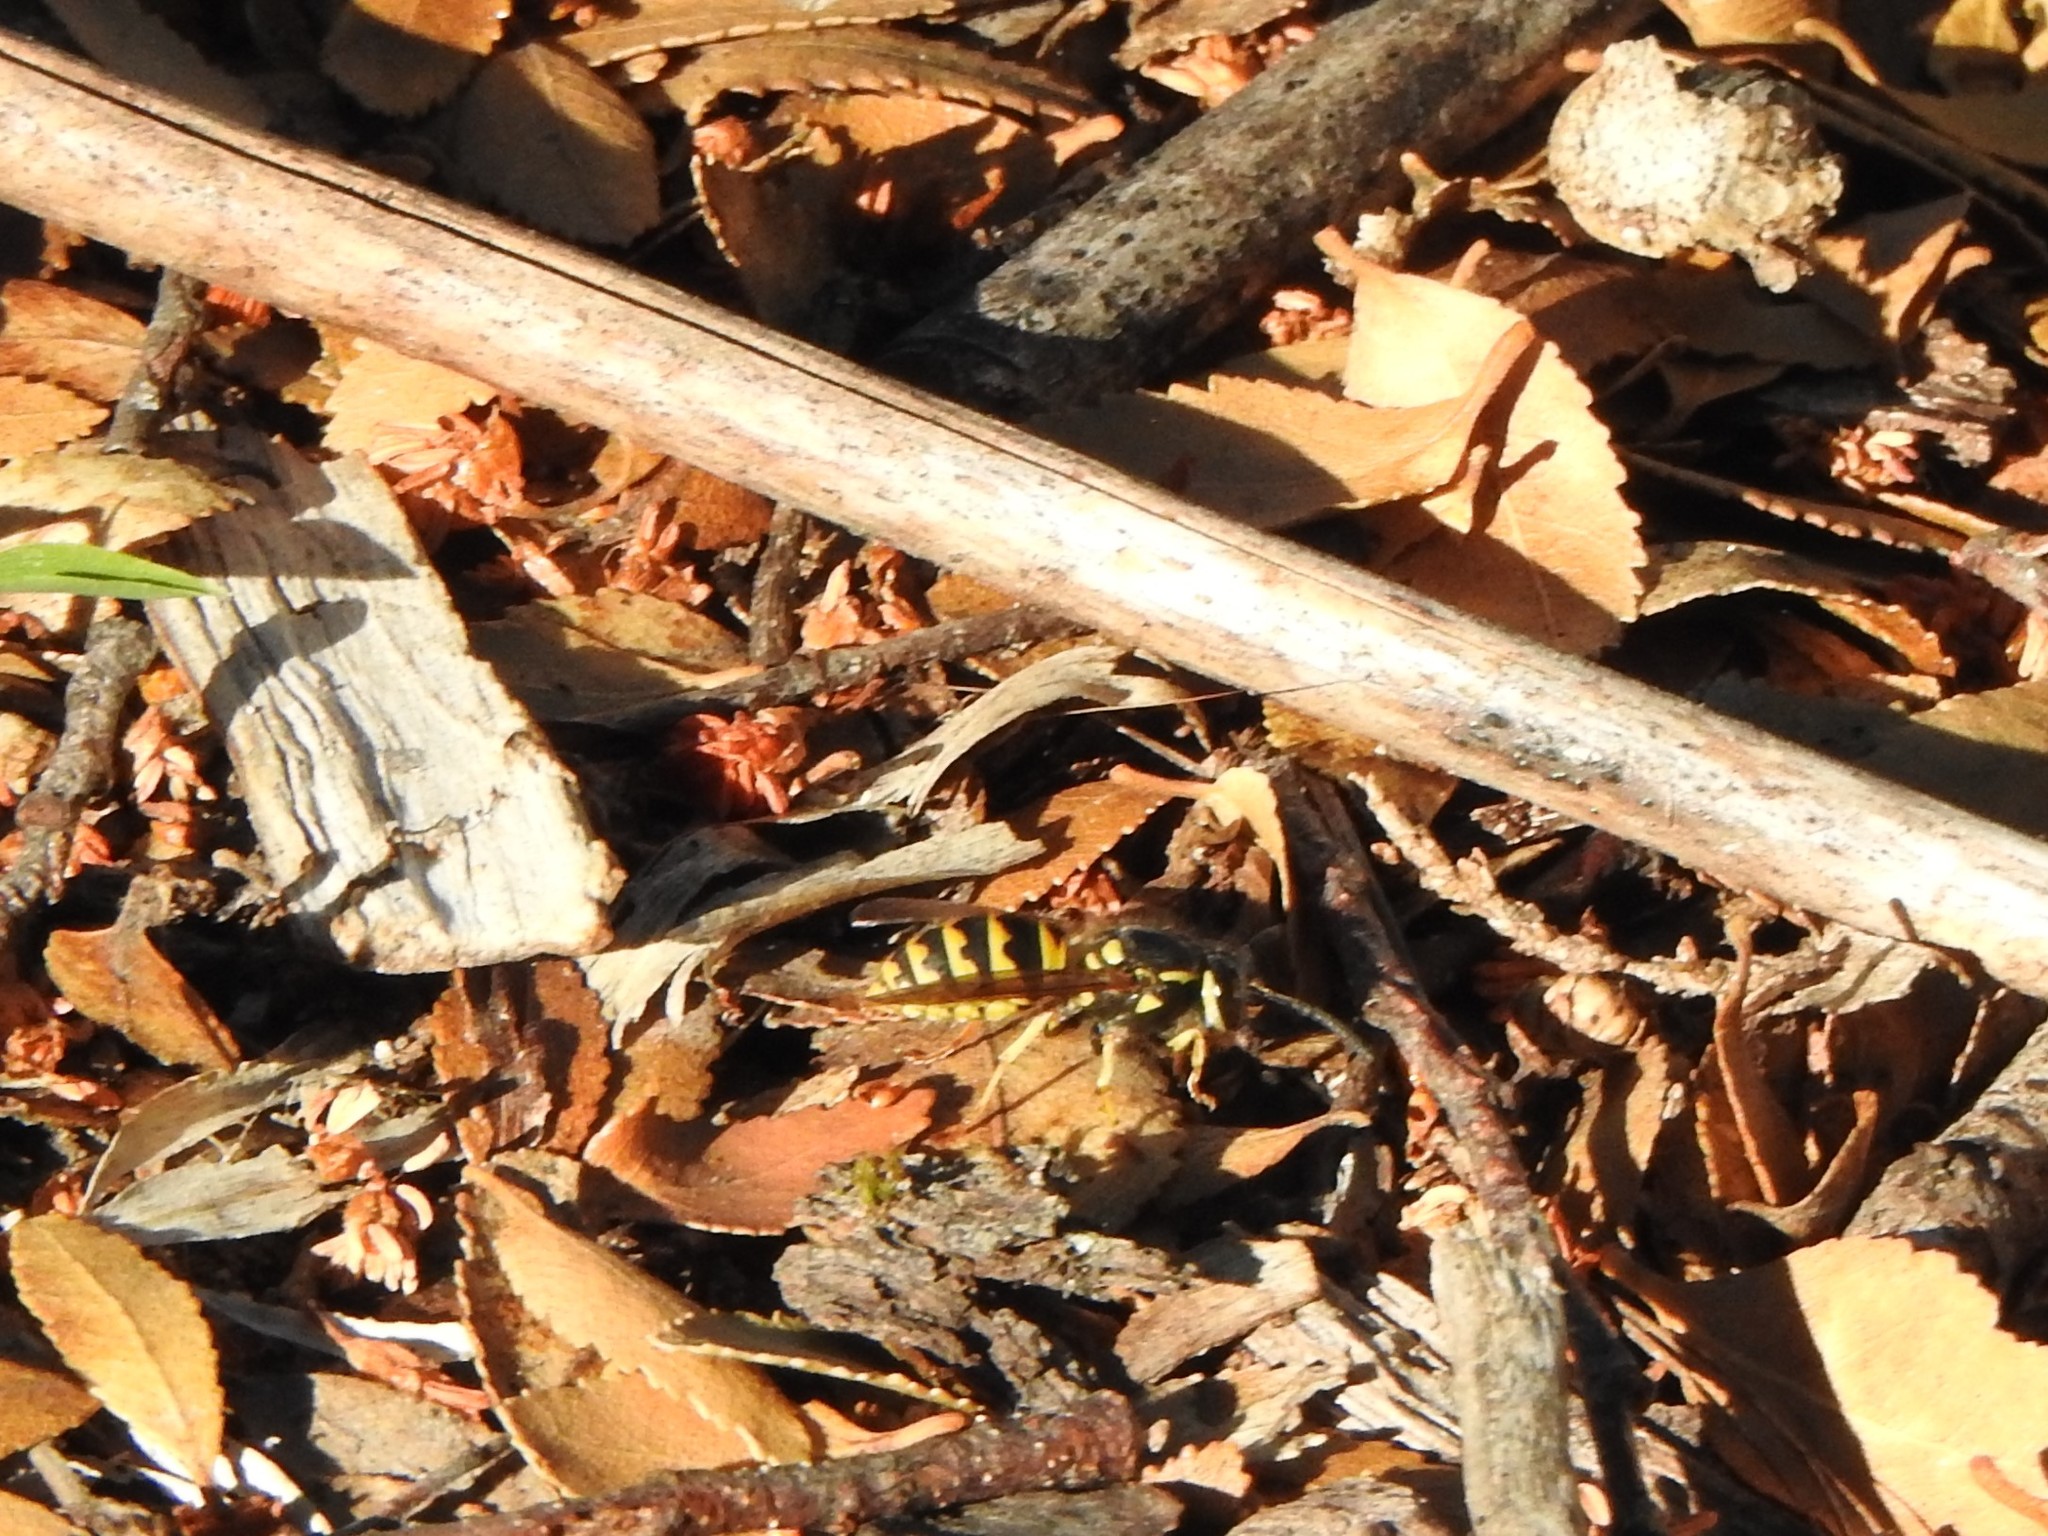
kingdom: Animalia
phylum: Arthropoda
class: Insecta
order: Hymenoptera
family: Vespidae
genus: Vespula
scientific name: Vespula germanica
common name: German wasp
